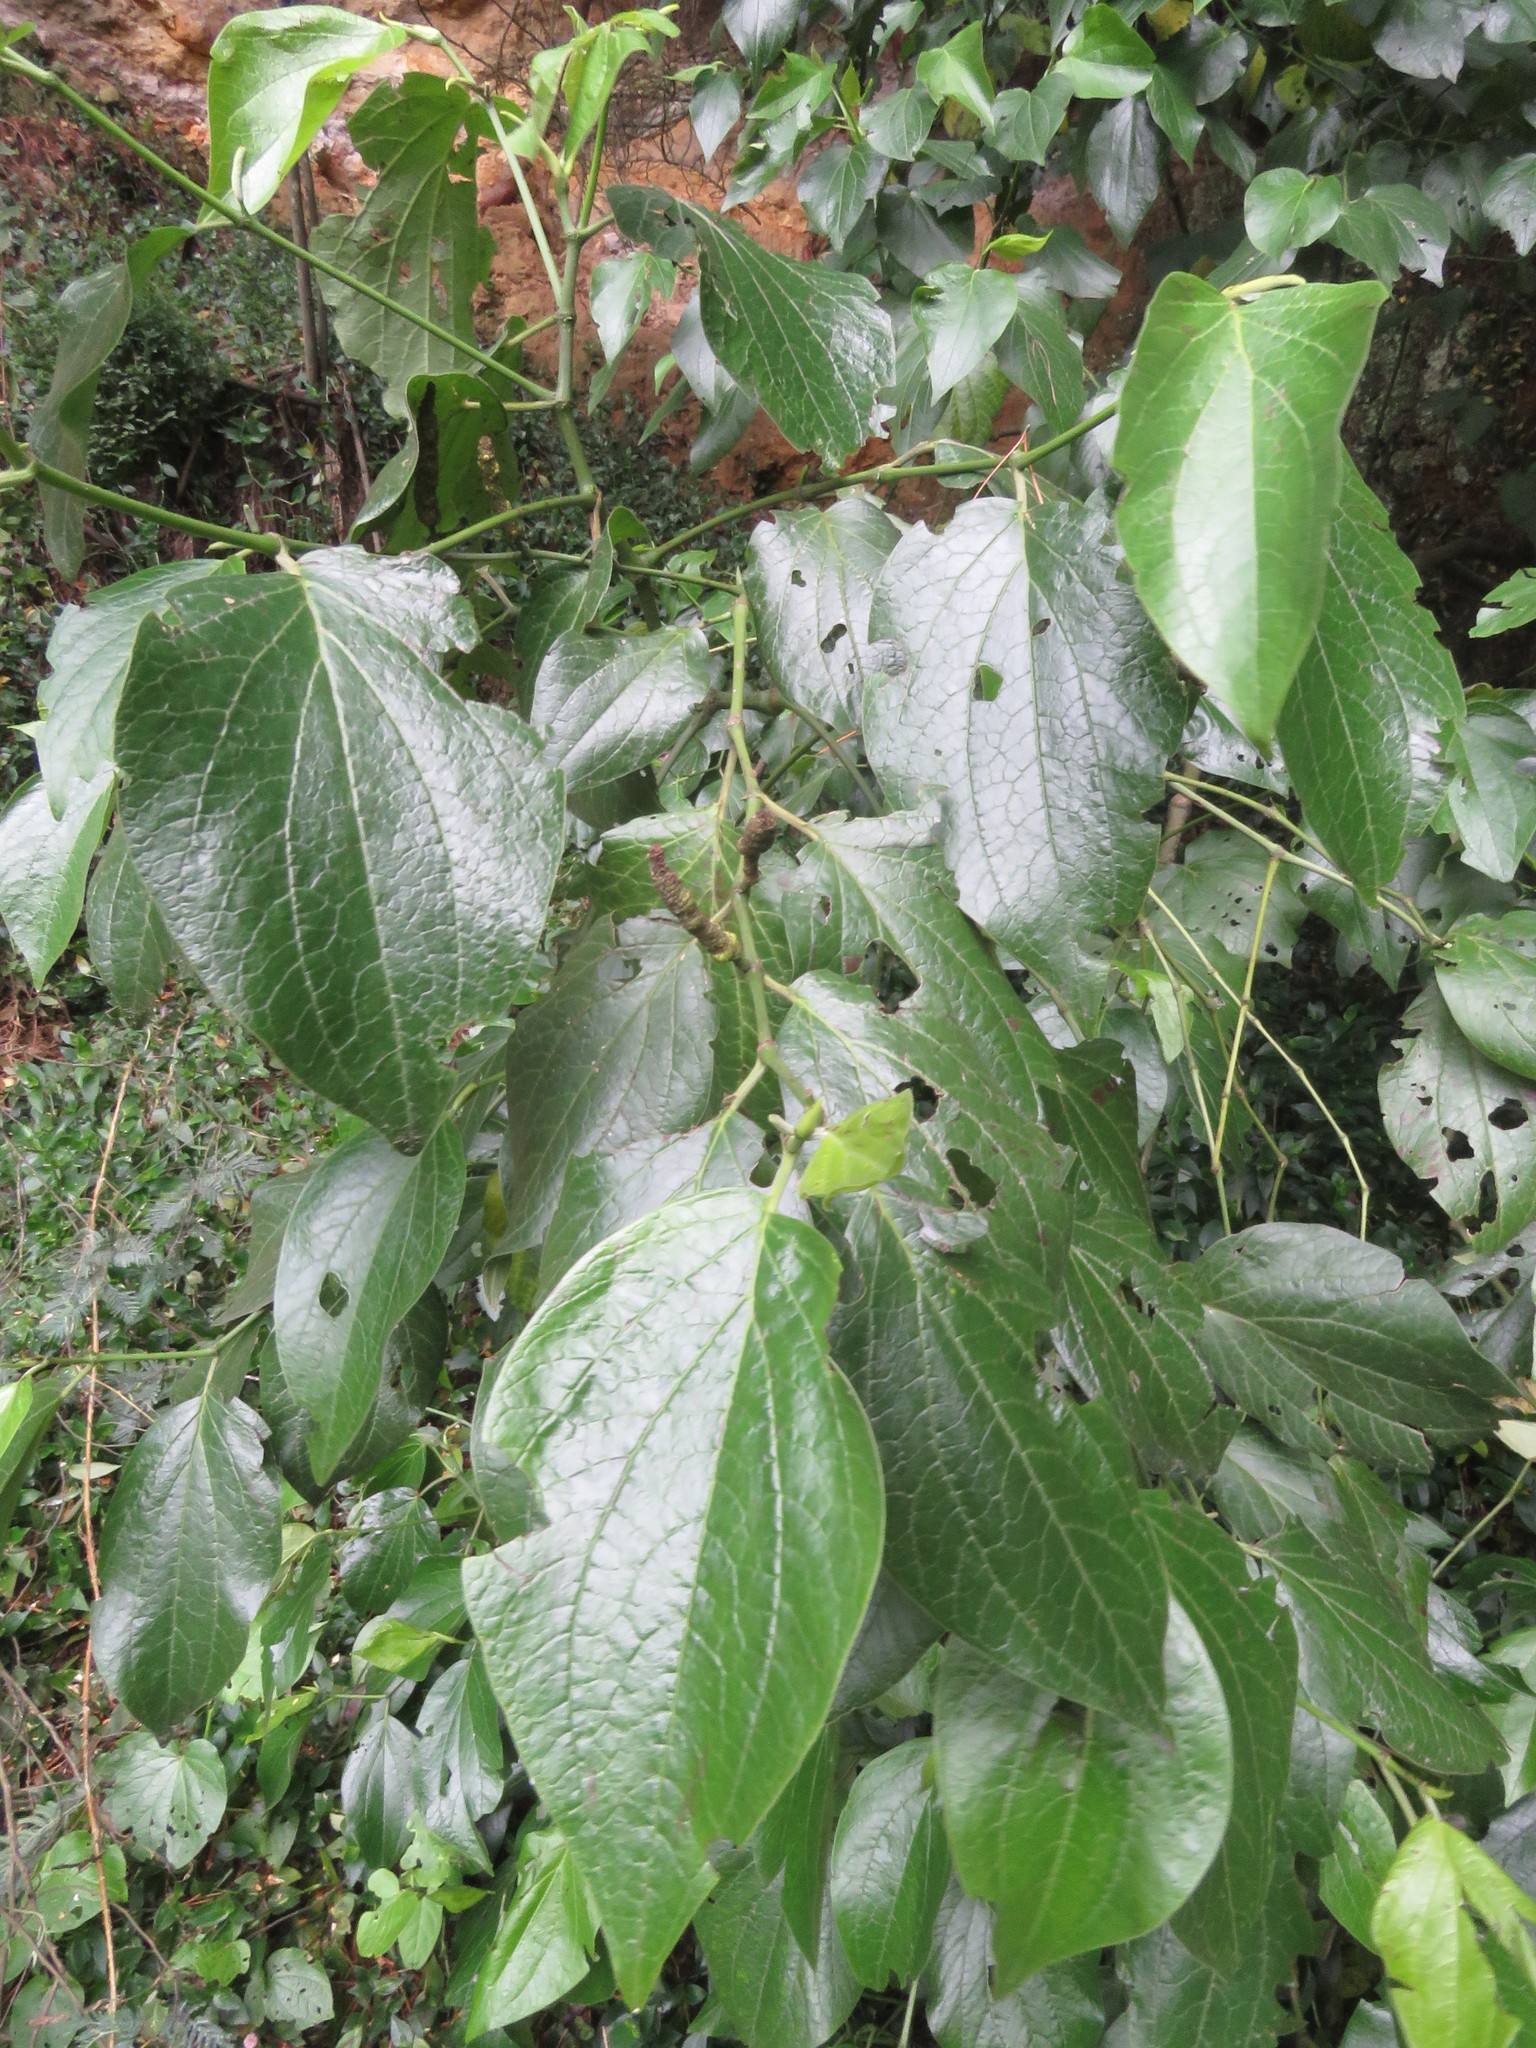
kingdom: Plantae
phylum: Tracheophyta
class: Magnoliopsida
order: Piperales
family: Piperaceae
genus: Piper
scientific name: Piper barbatum
